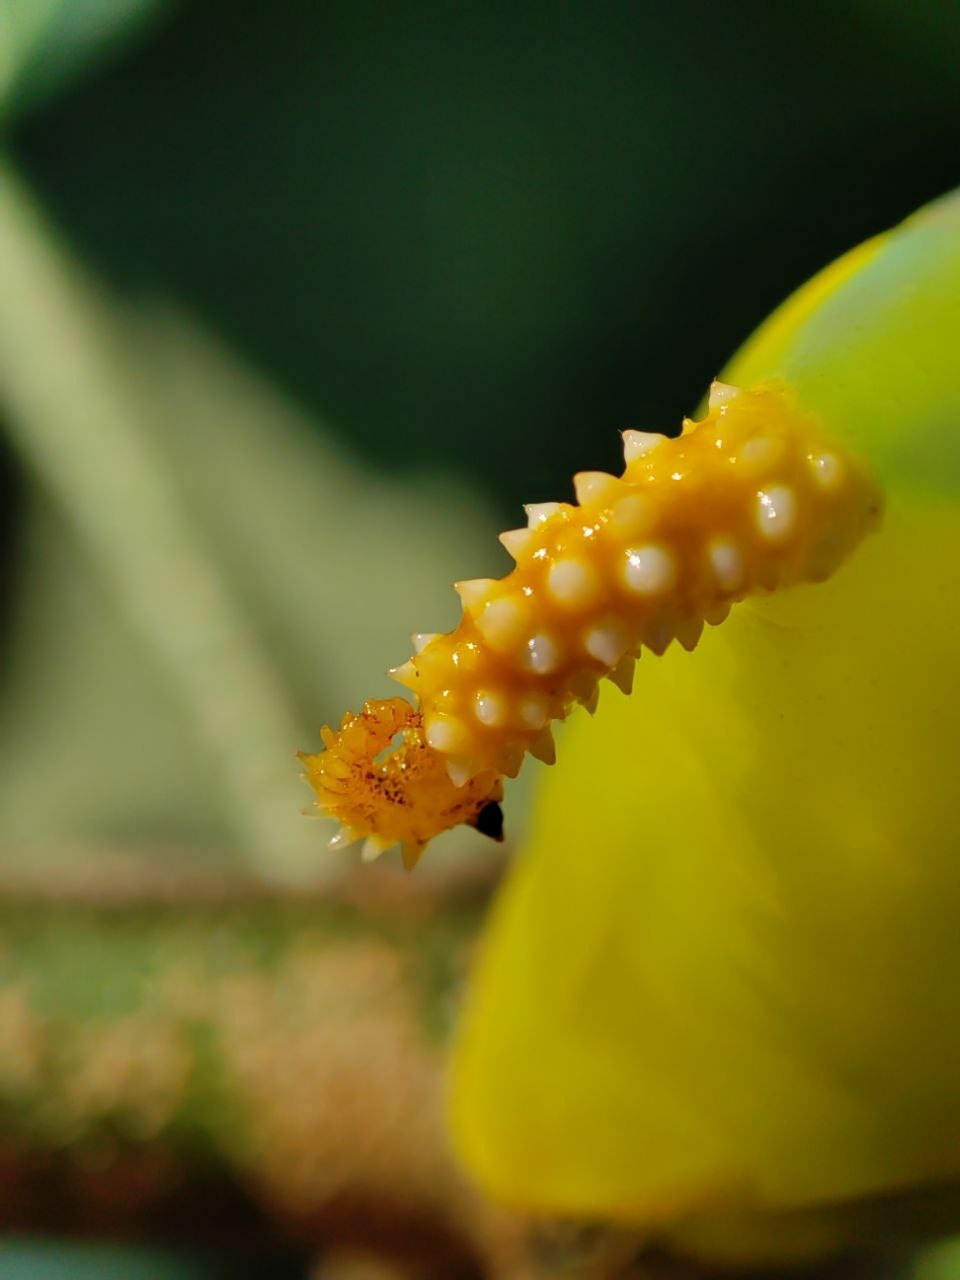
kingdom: Animalia
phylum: Arthropoda
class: Insecta
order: Lepidoptera
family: Sphingidae
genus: Acherontia
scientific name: Acherontia atropos
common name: Death's-head hawk moth
